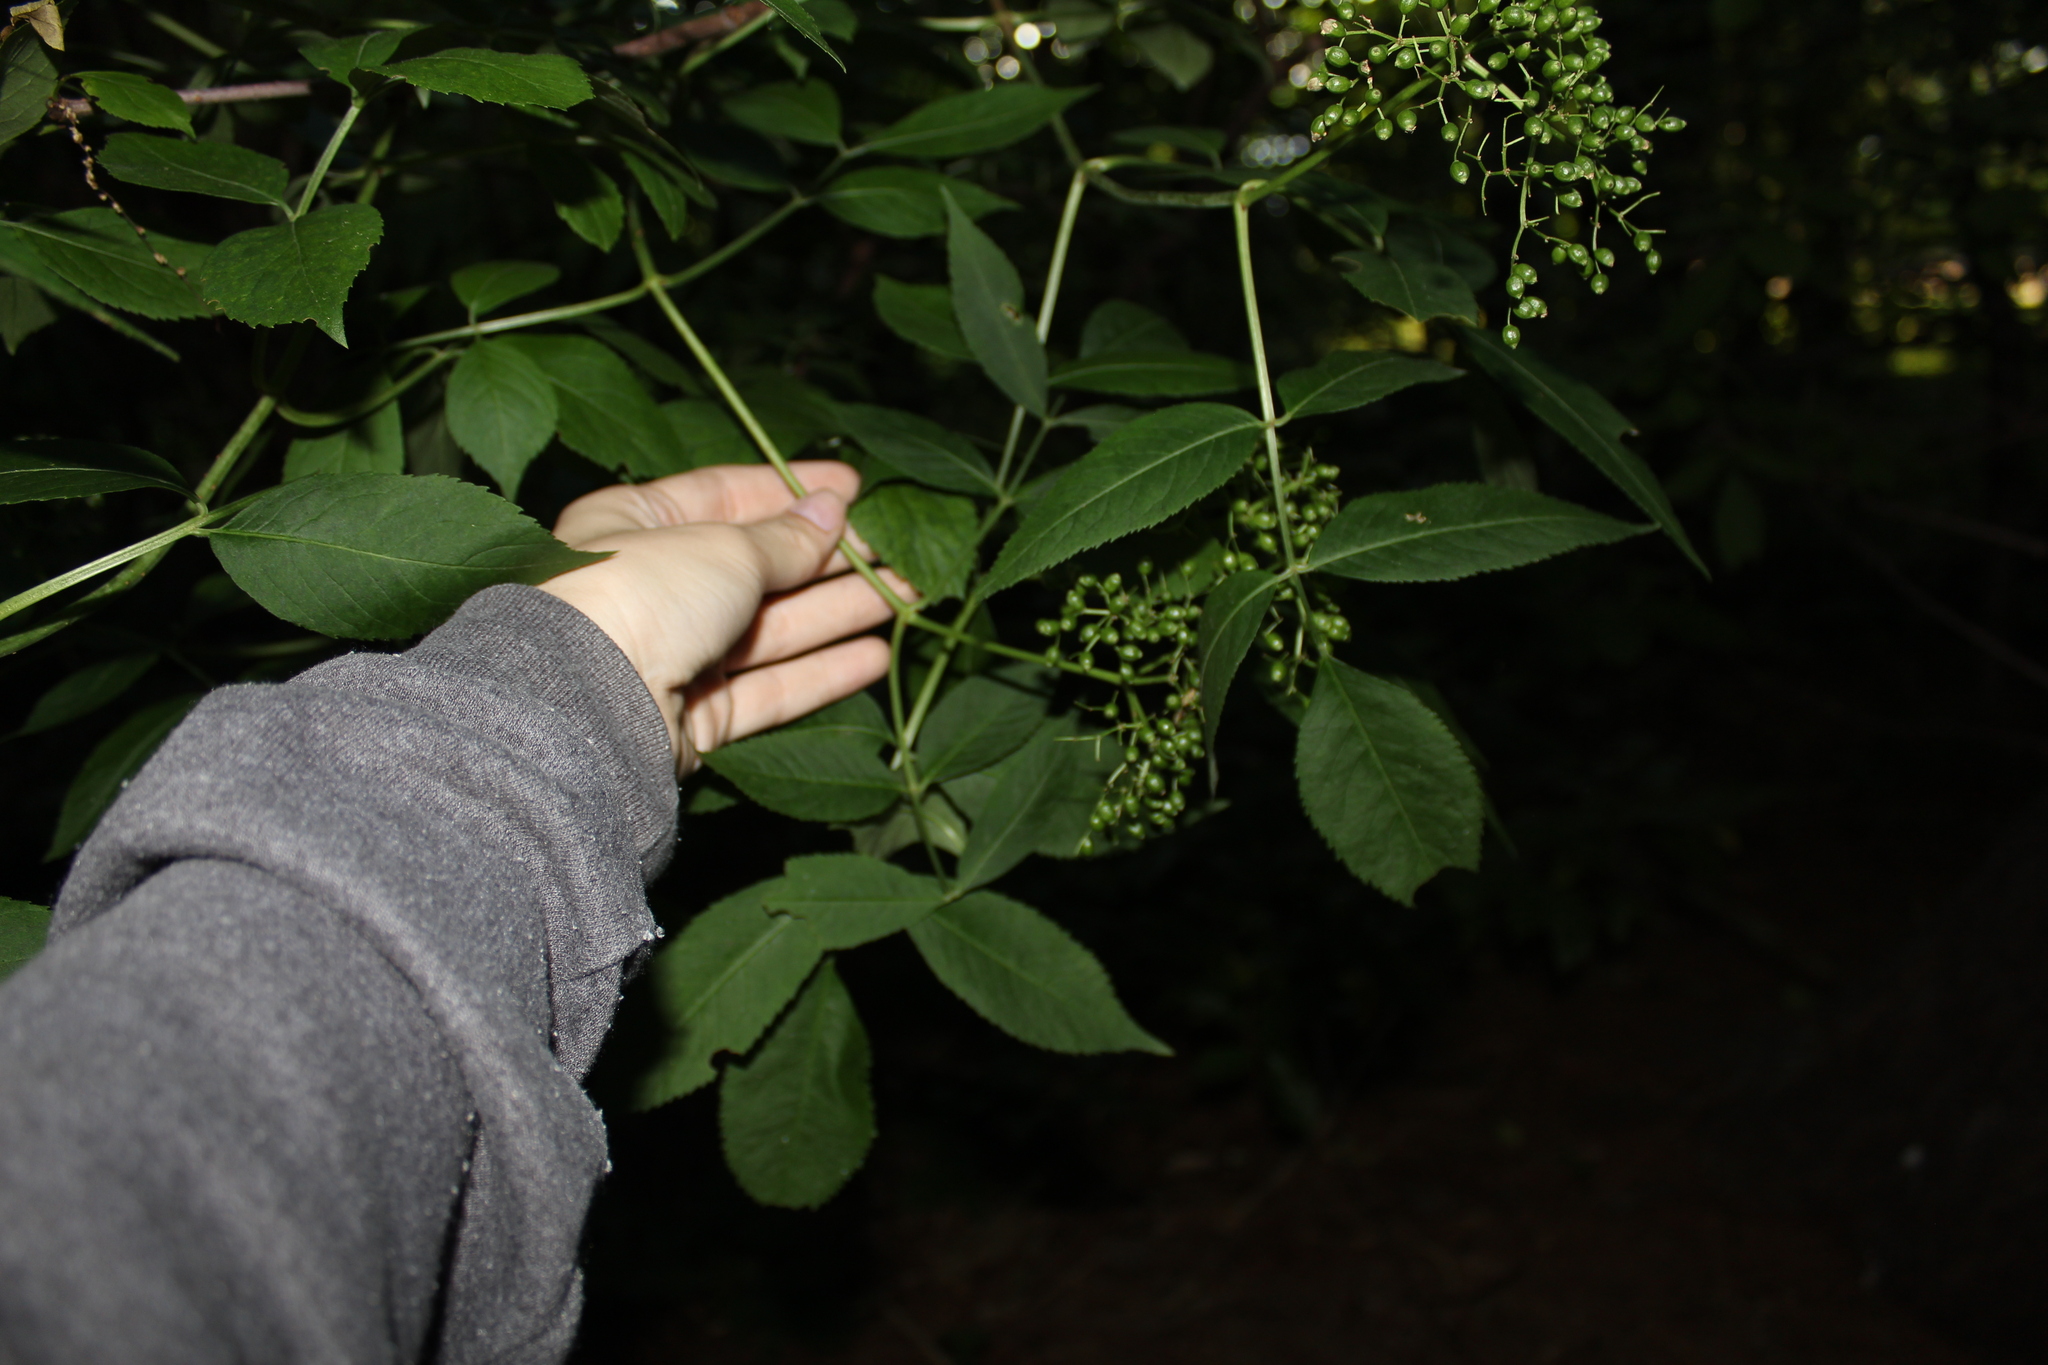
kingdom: Plantae
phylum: Tracheophyta
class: Magnoliopsida
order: Dipsacales
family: Viburnaceae
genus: Sambucus
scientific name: Sambucus canadensis
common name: American elder
